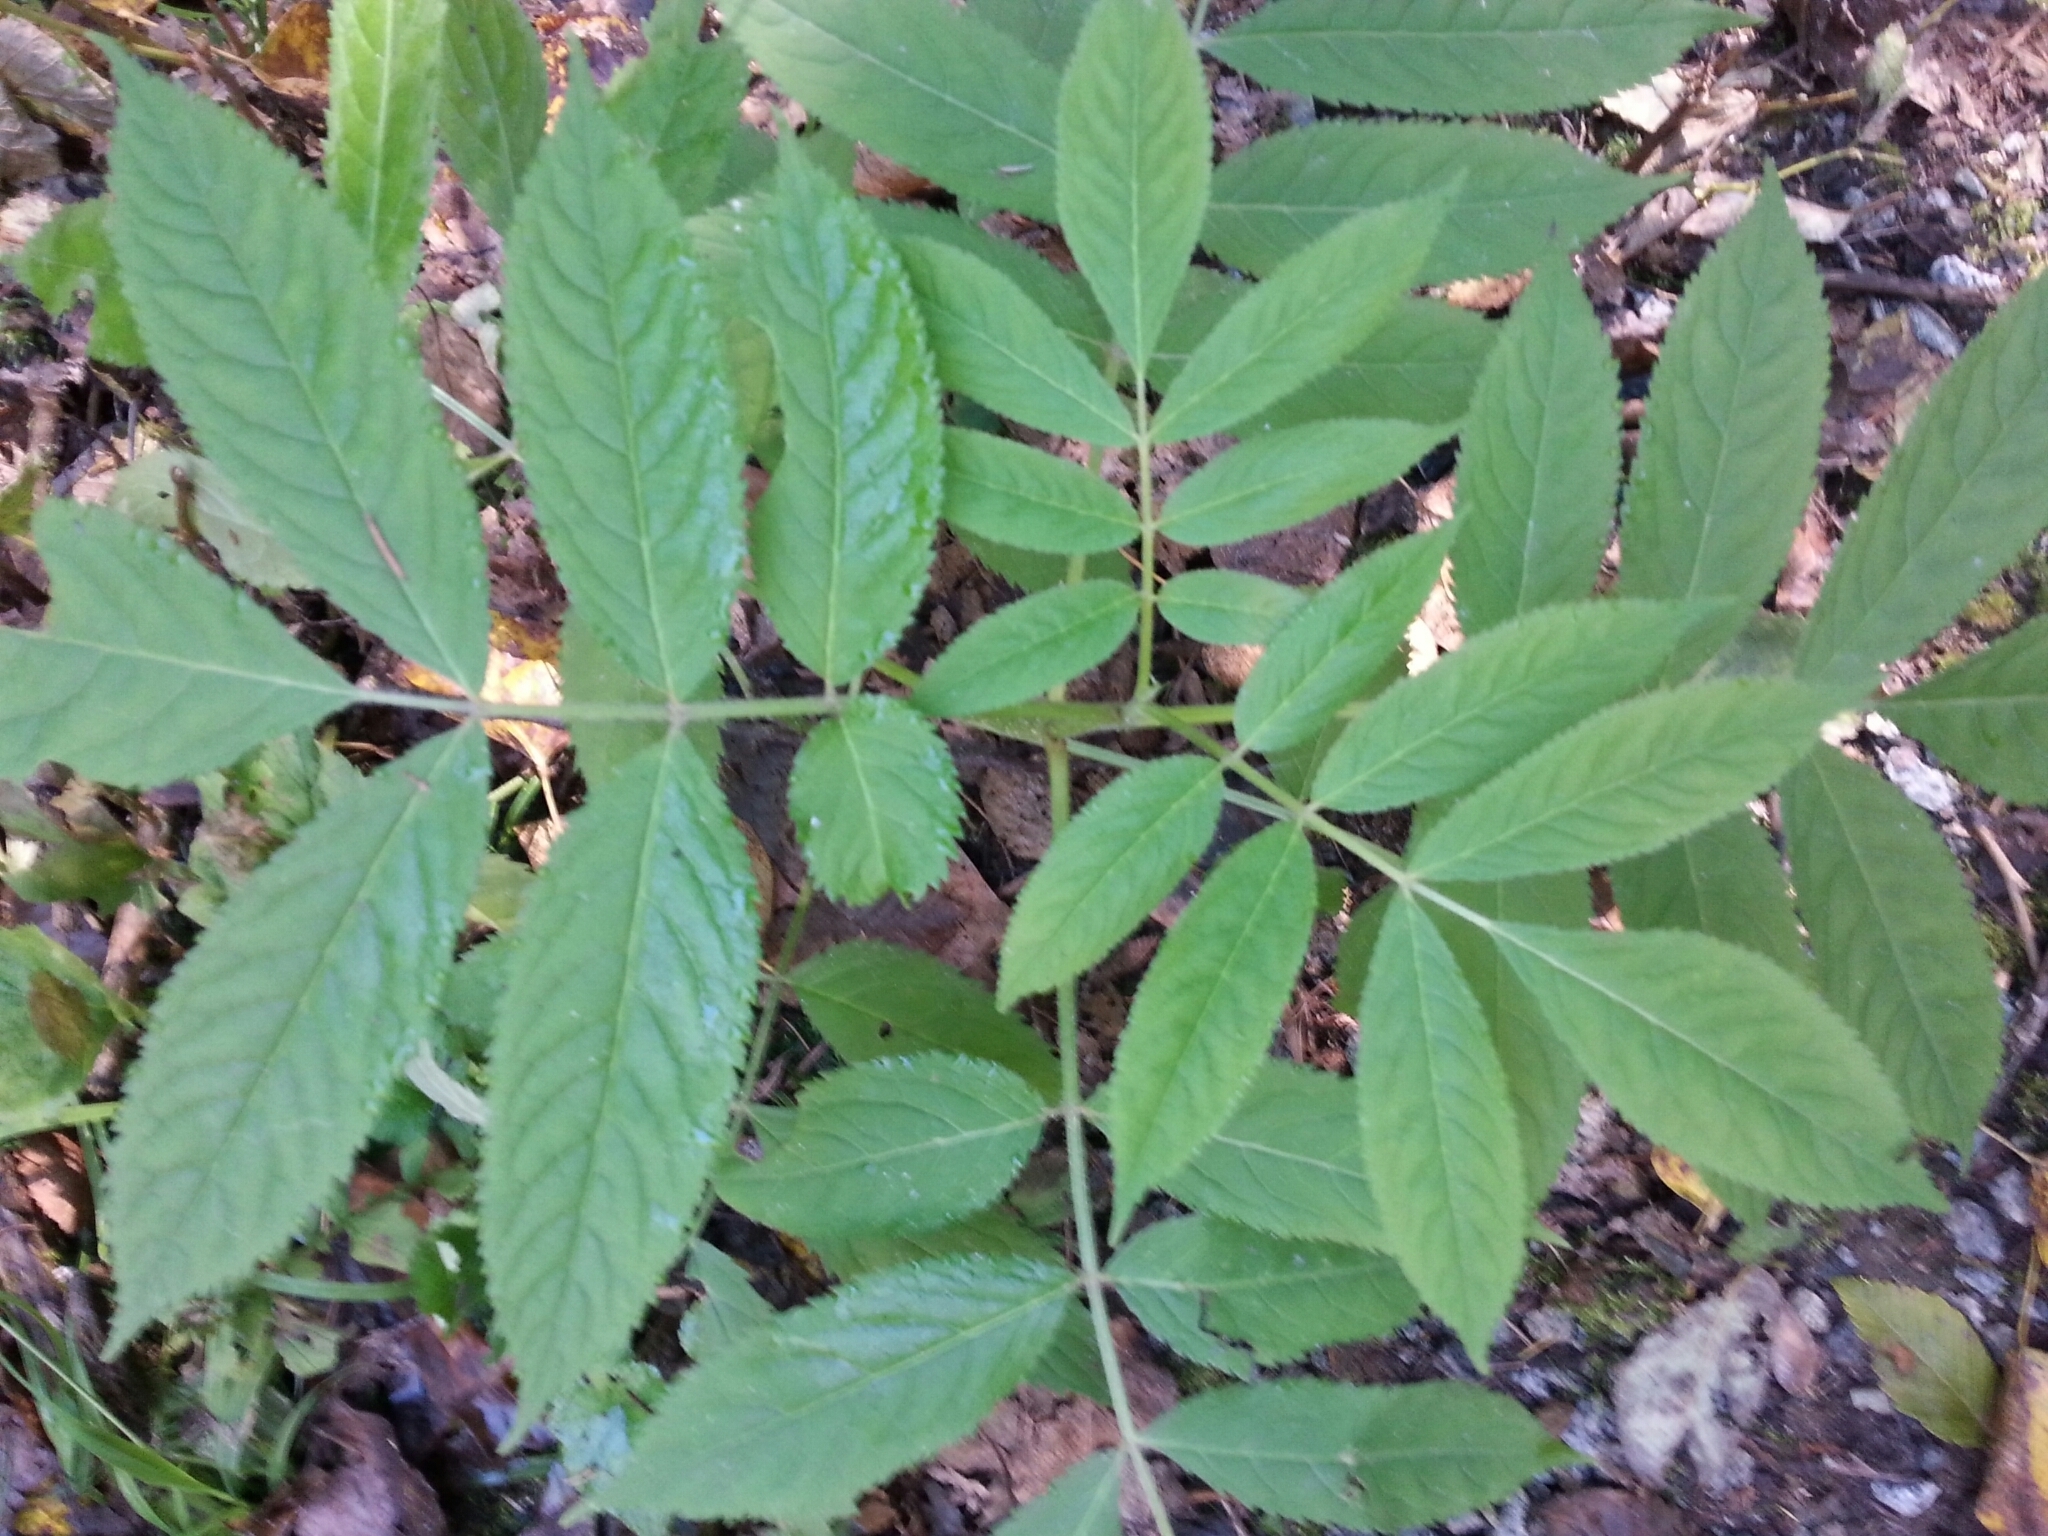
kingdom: Plantae
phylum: Tracheophyta
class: Magnoliopsida
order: Dipsacales
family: Viburnaceae
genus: Sambucus
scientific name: Sambucus racemosa
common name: Red-berried elder
